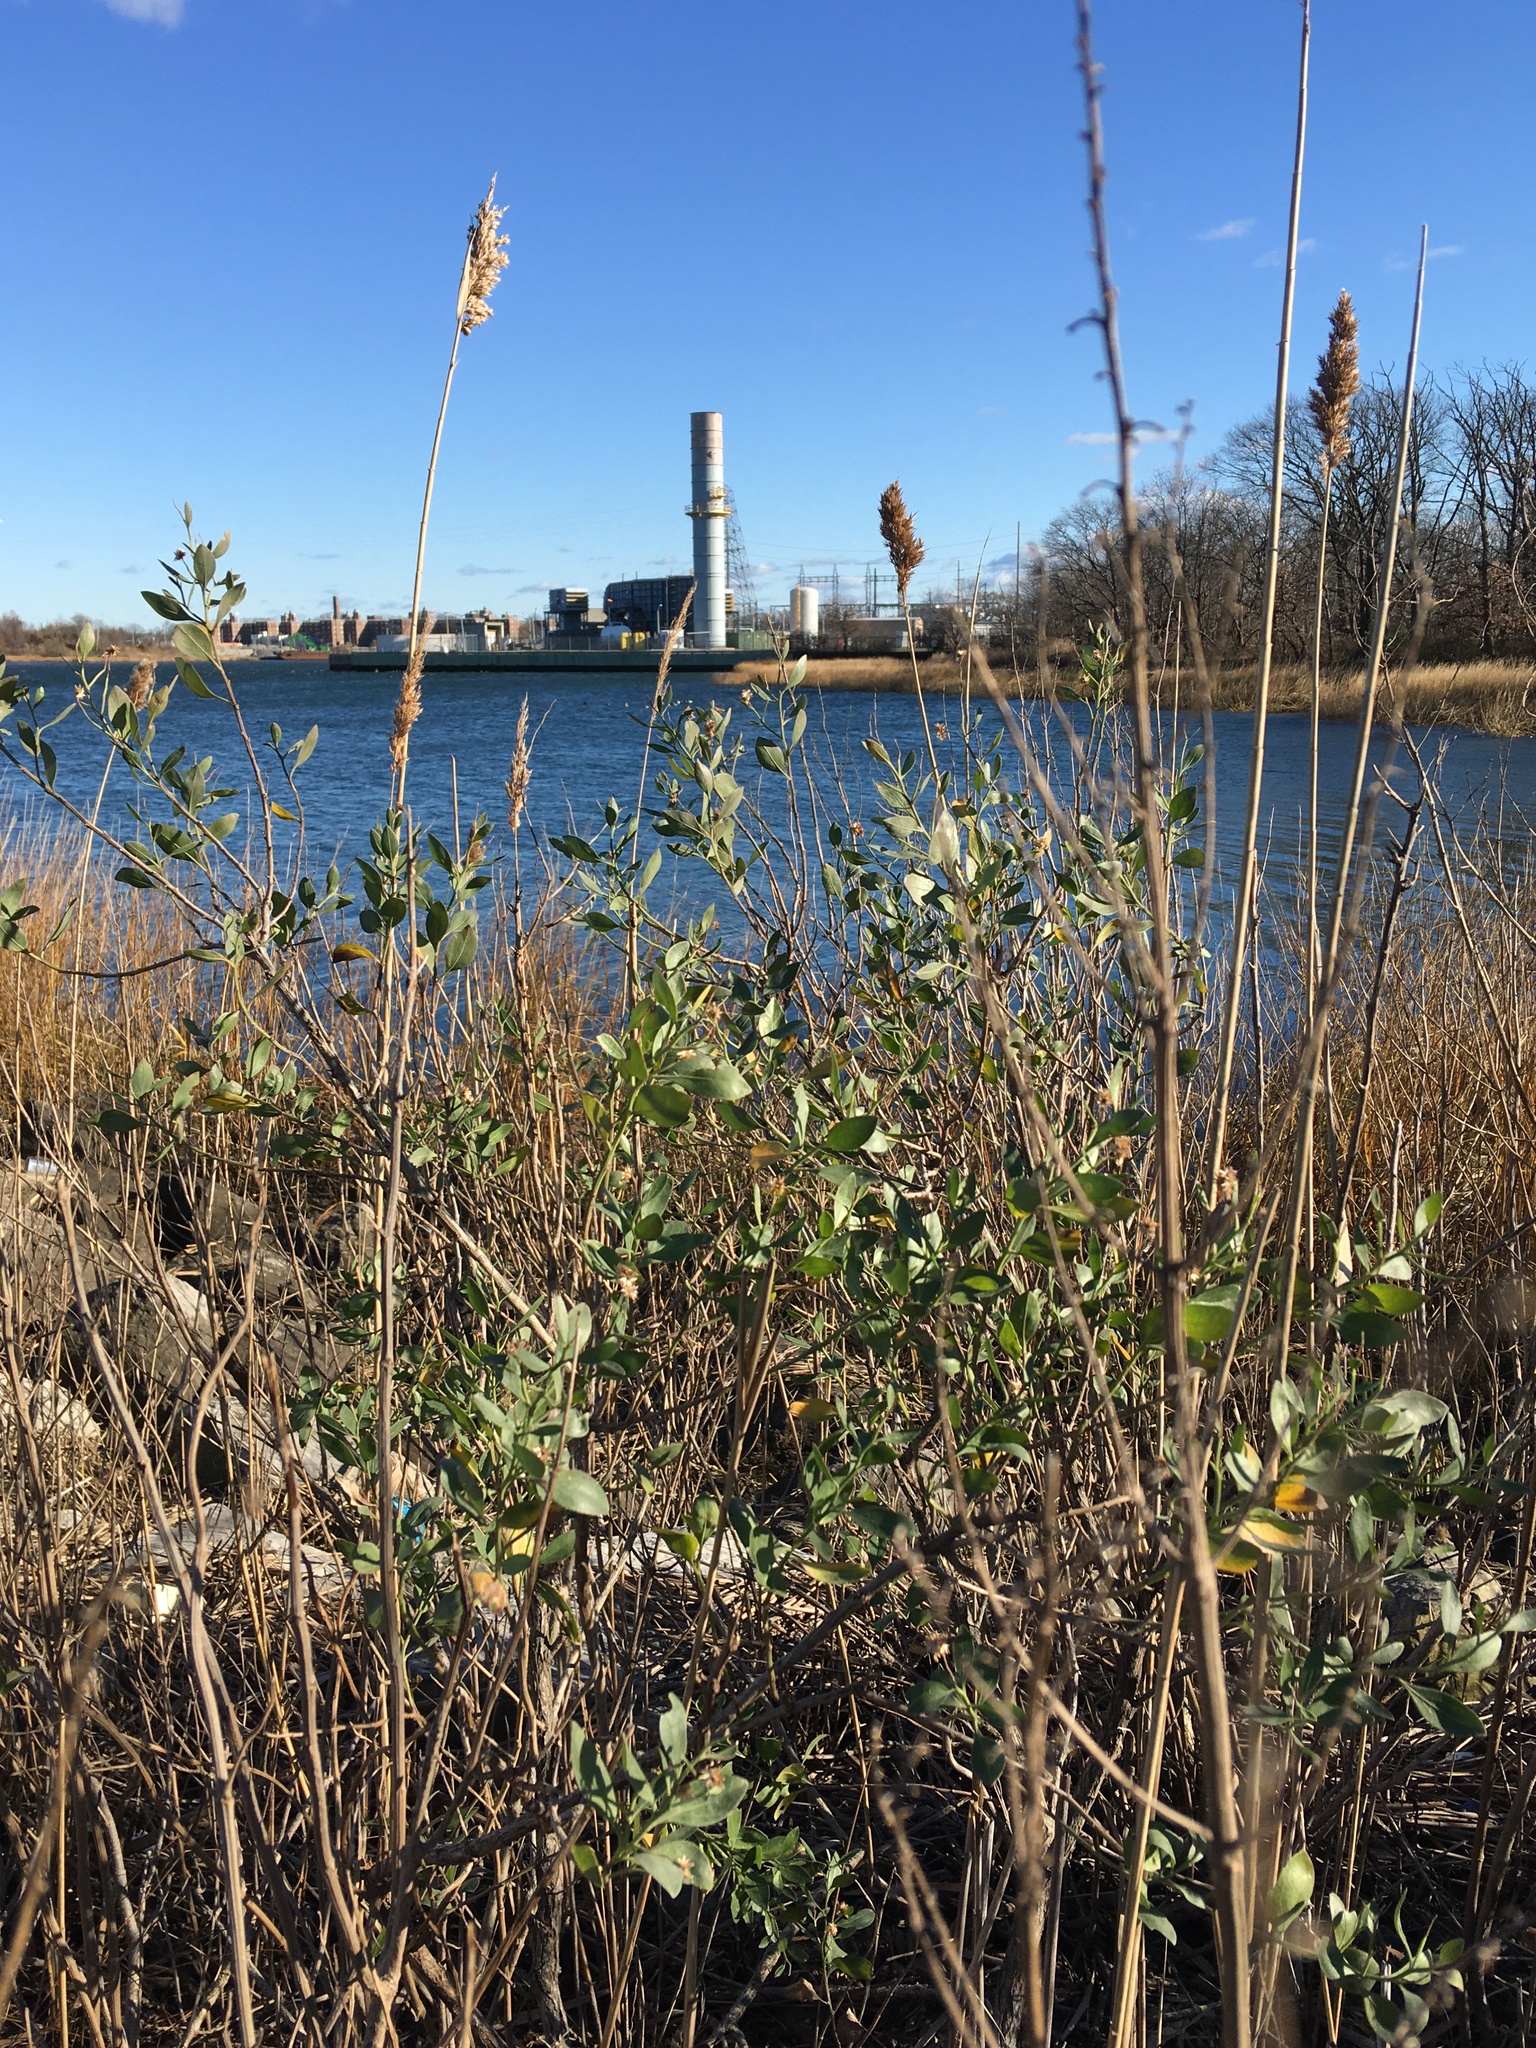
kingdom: Plantae
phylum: Tracheophyta
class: Liliopsida
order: Poales
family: Poaceae
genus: Phragmites
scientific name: Phragmites australis
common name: Common reed
